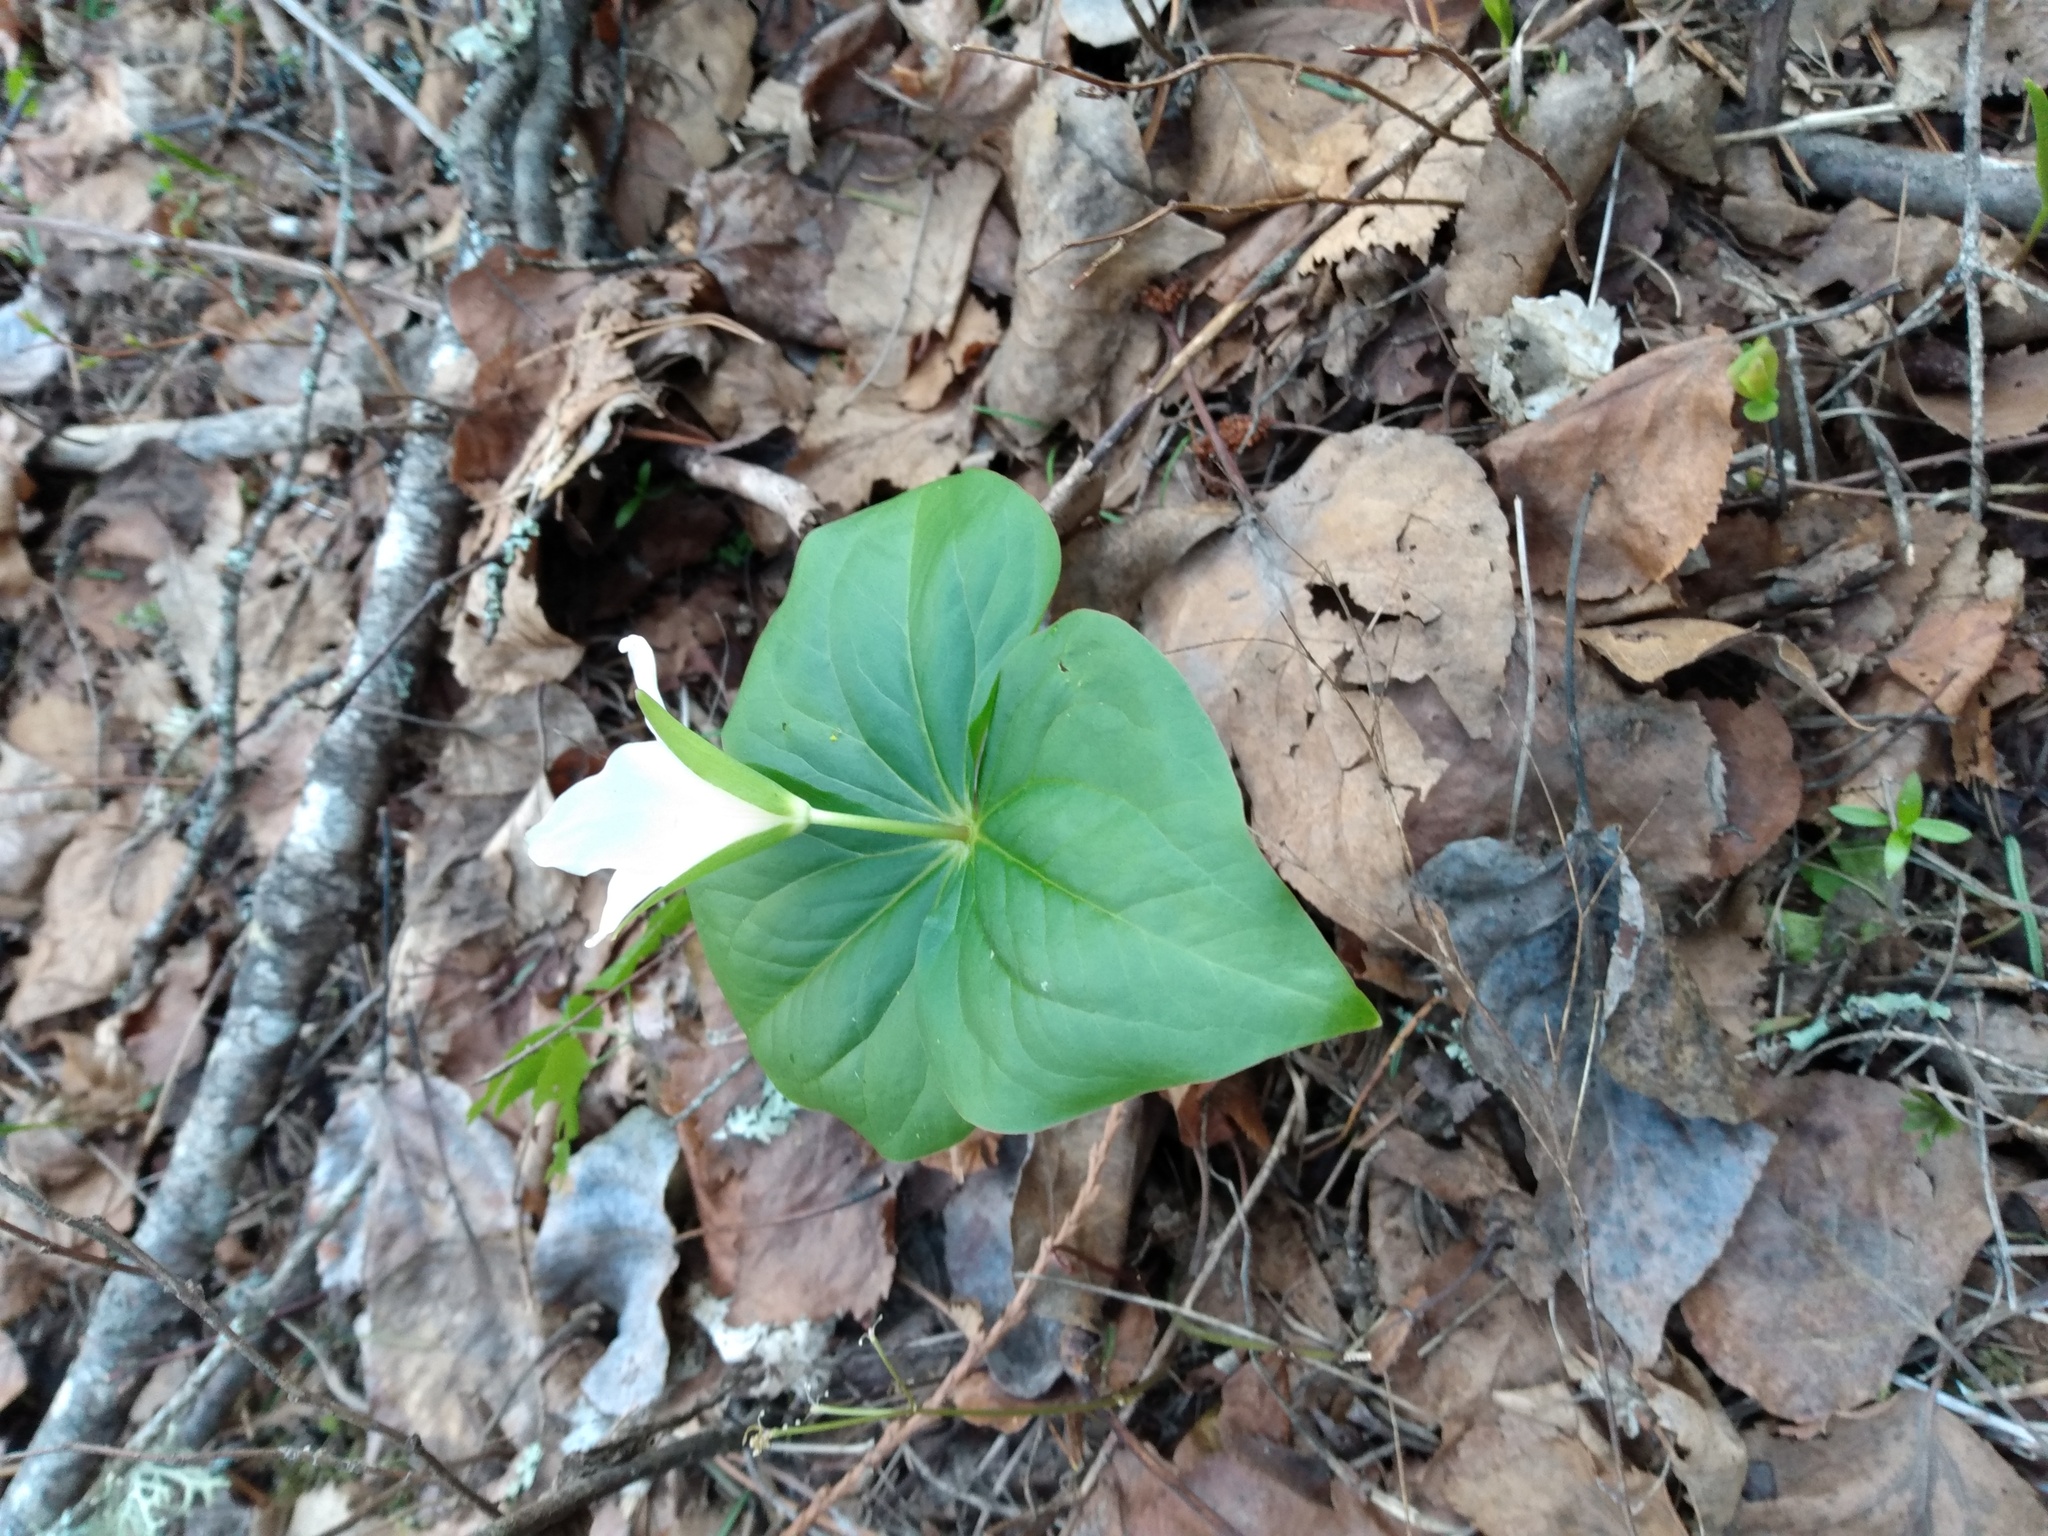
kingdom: Plantae
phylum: Tracheophyta
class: Liliopsida
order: Liliales
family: Melanthiaceae
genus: Trillium
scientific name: Trillium ovatum
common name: Pacific trillium
